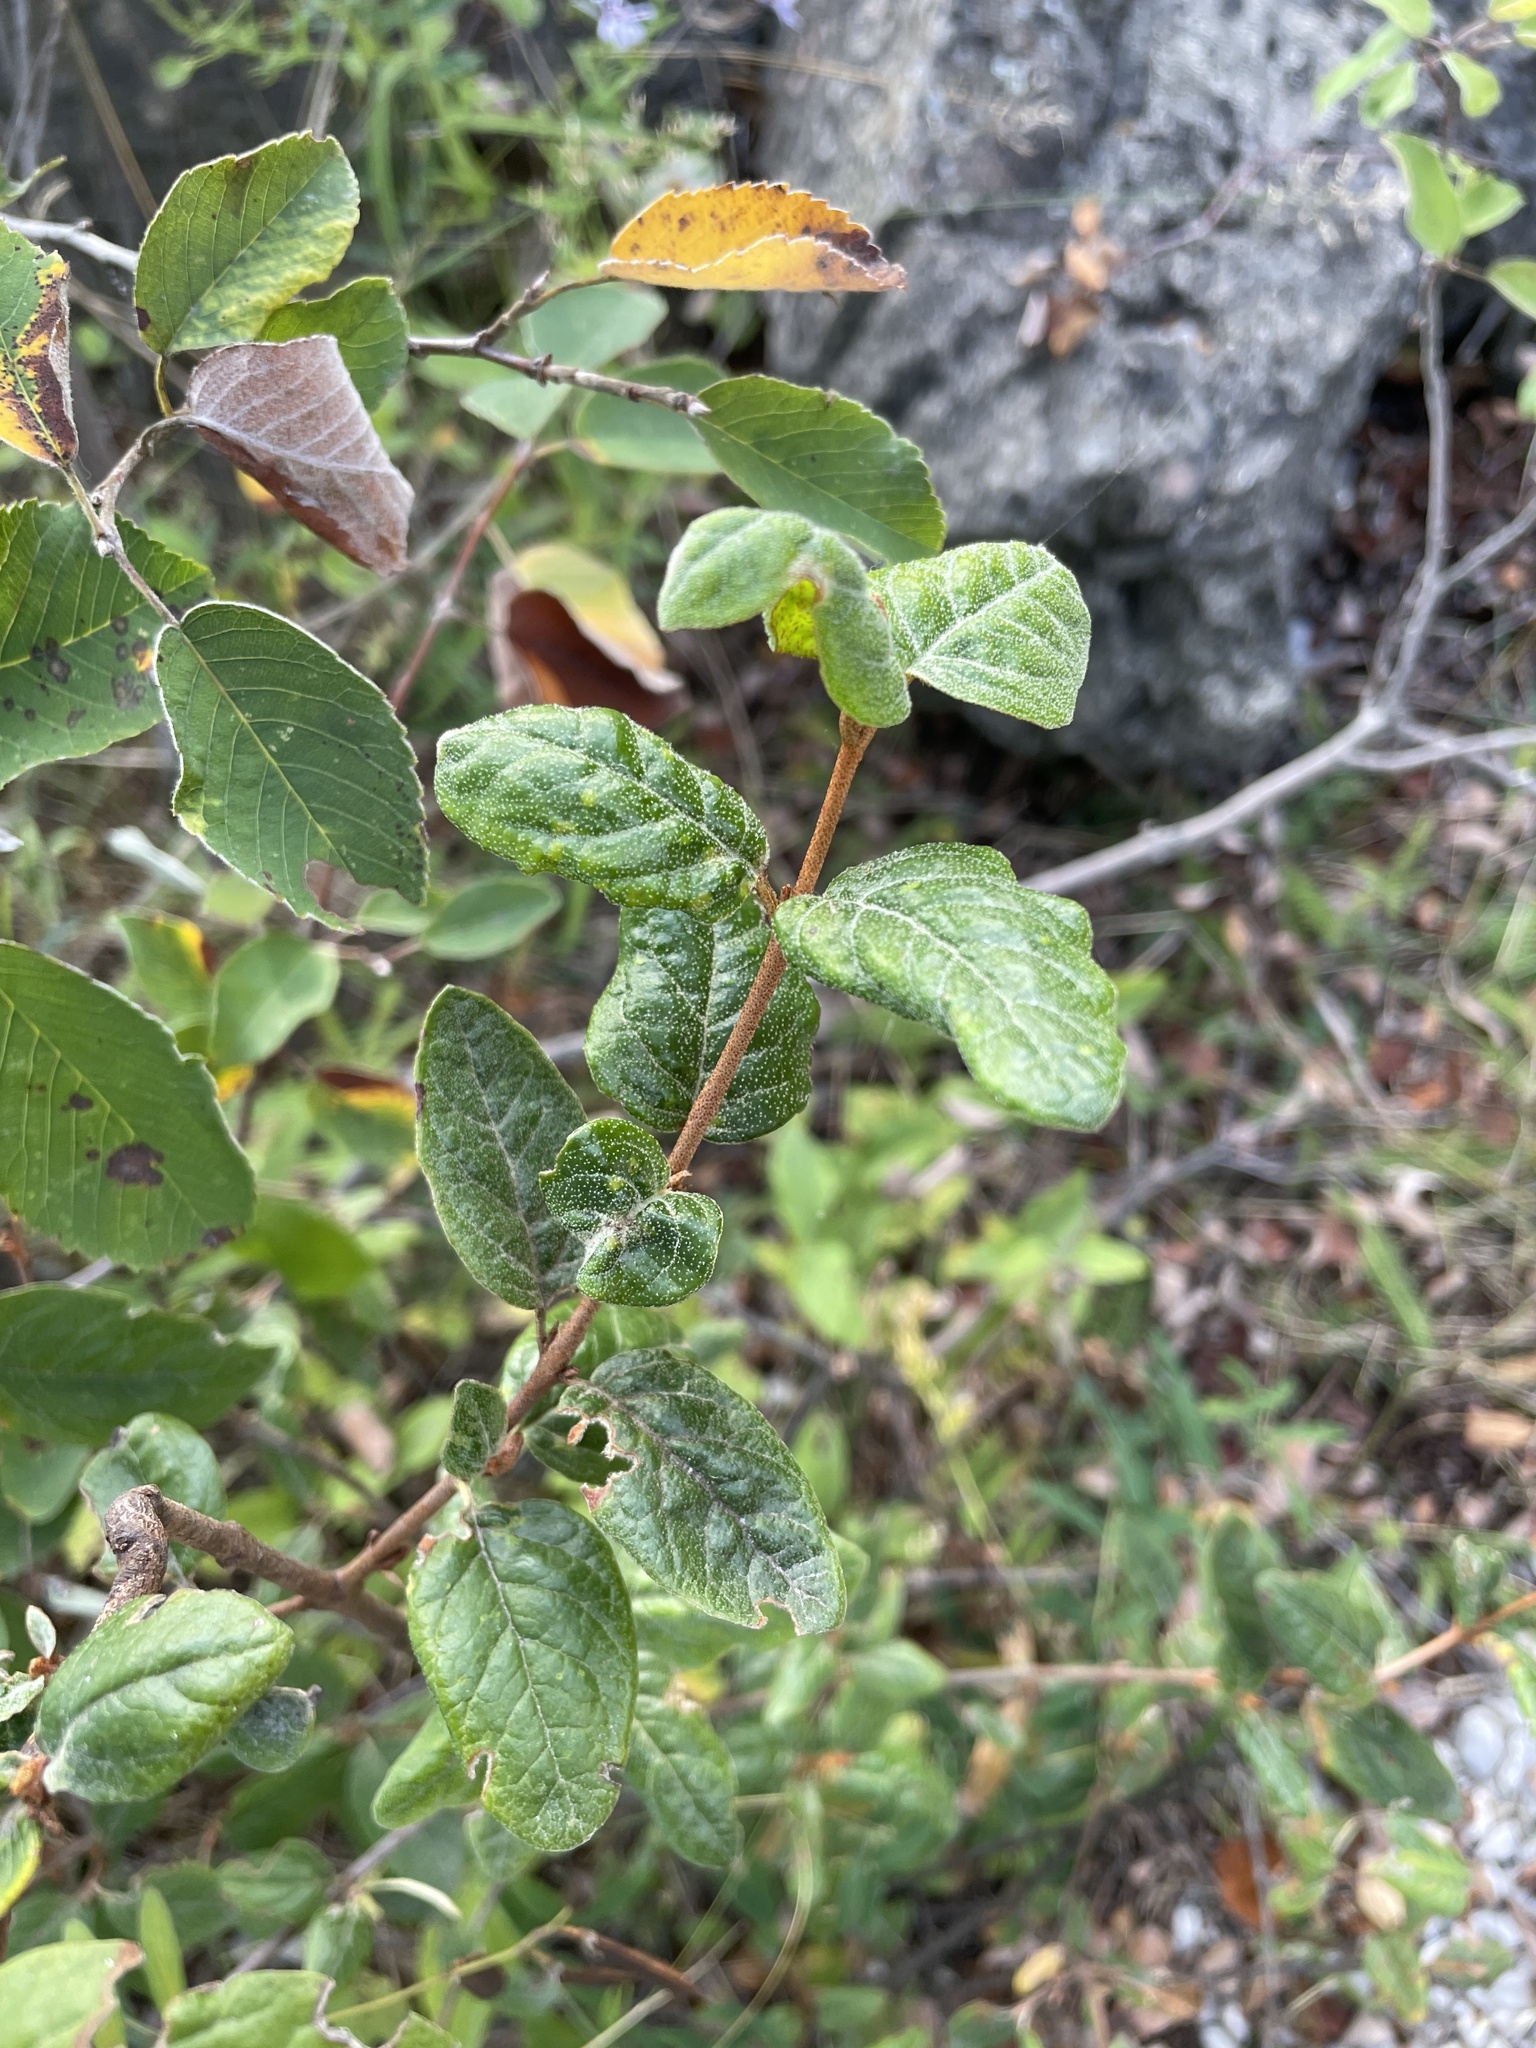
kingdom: Plantae
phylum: Tracheophyta
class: Magnoliopsida
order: Rosales
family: Elaeagnaceae
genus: Shepherdia
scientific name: Shepherdia canadensis
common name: Soapberry
